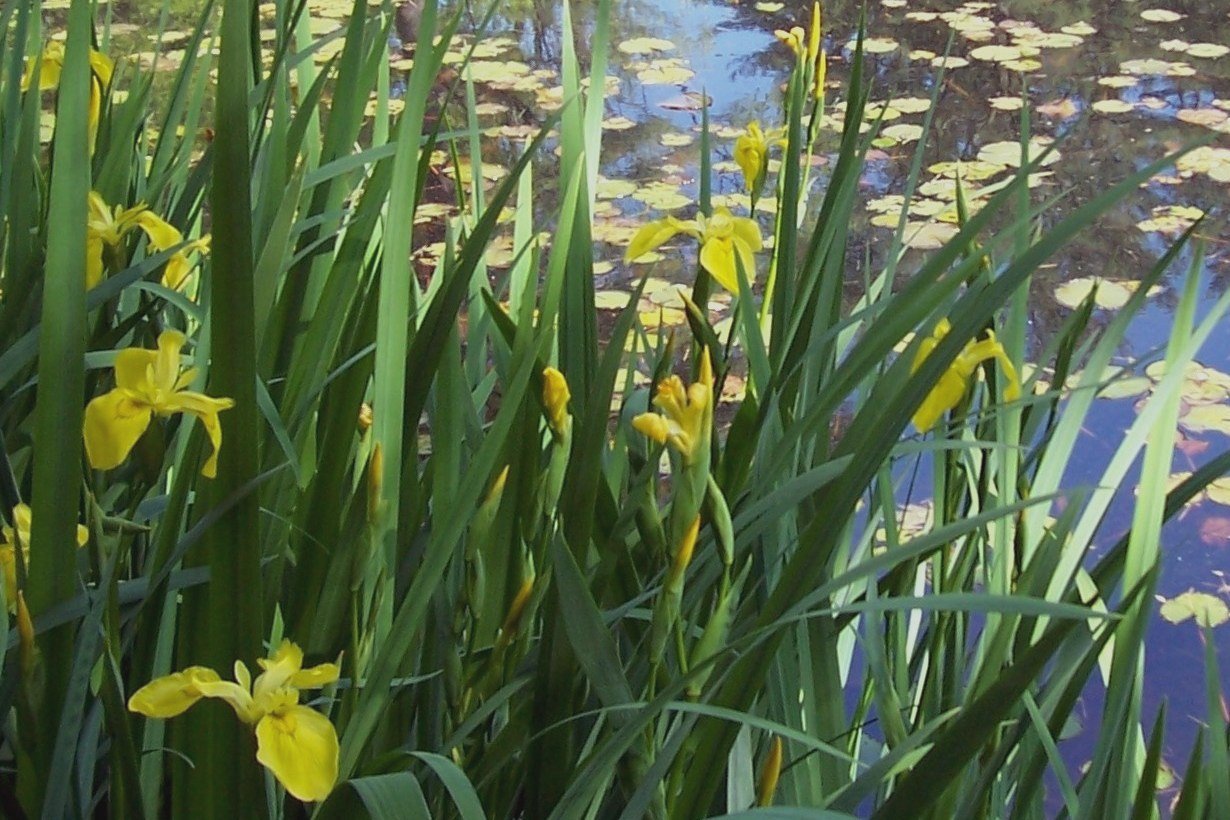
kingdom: Plantae
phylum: Tracheophyta
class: Liliopsida
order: Asparagales
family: Iridaceae
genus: Iris
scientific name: Iris pseudacorus
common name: Yellow flag
